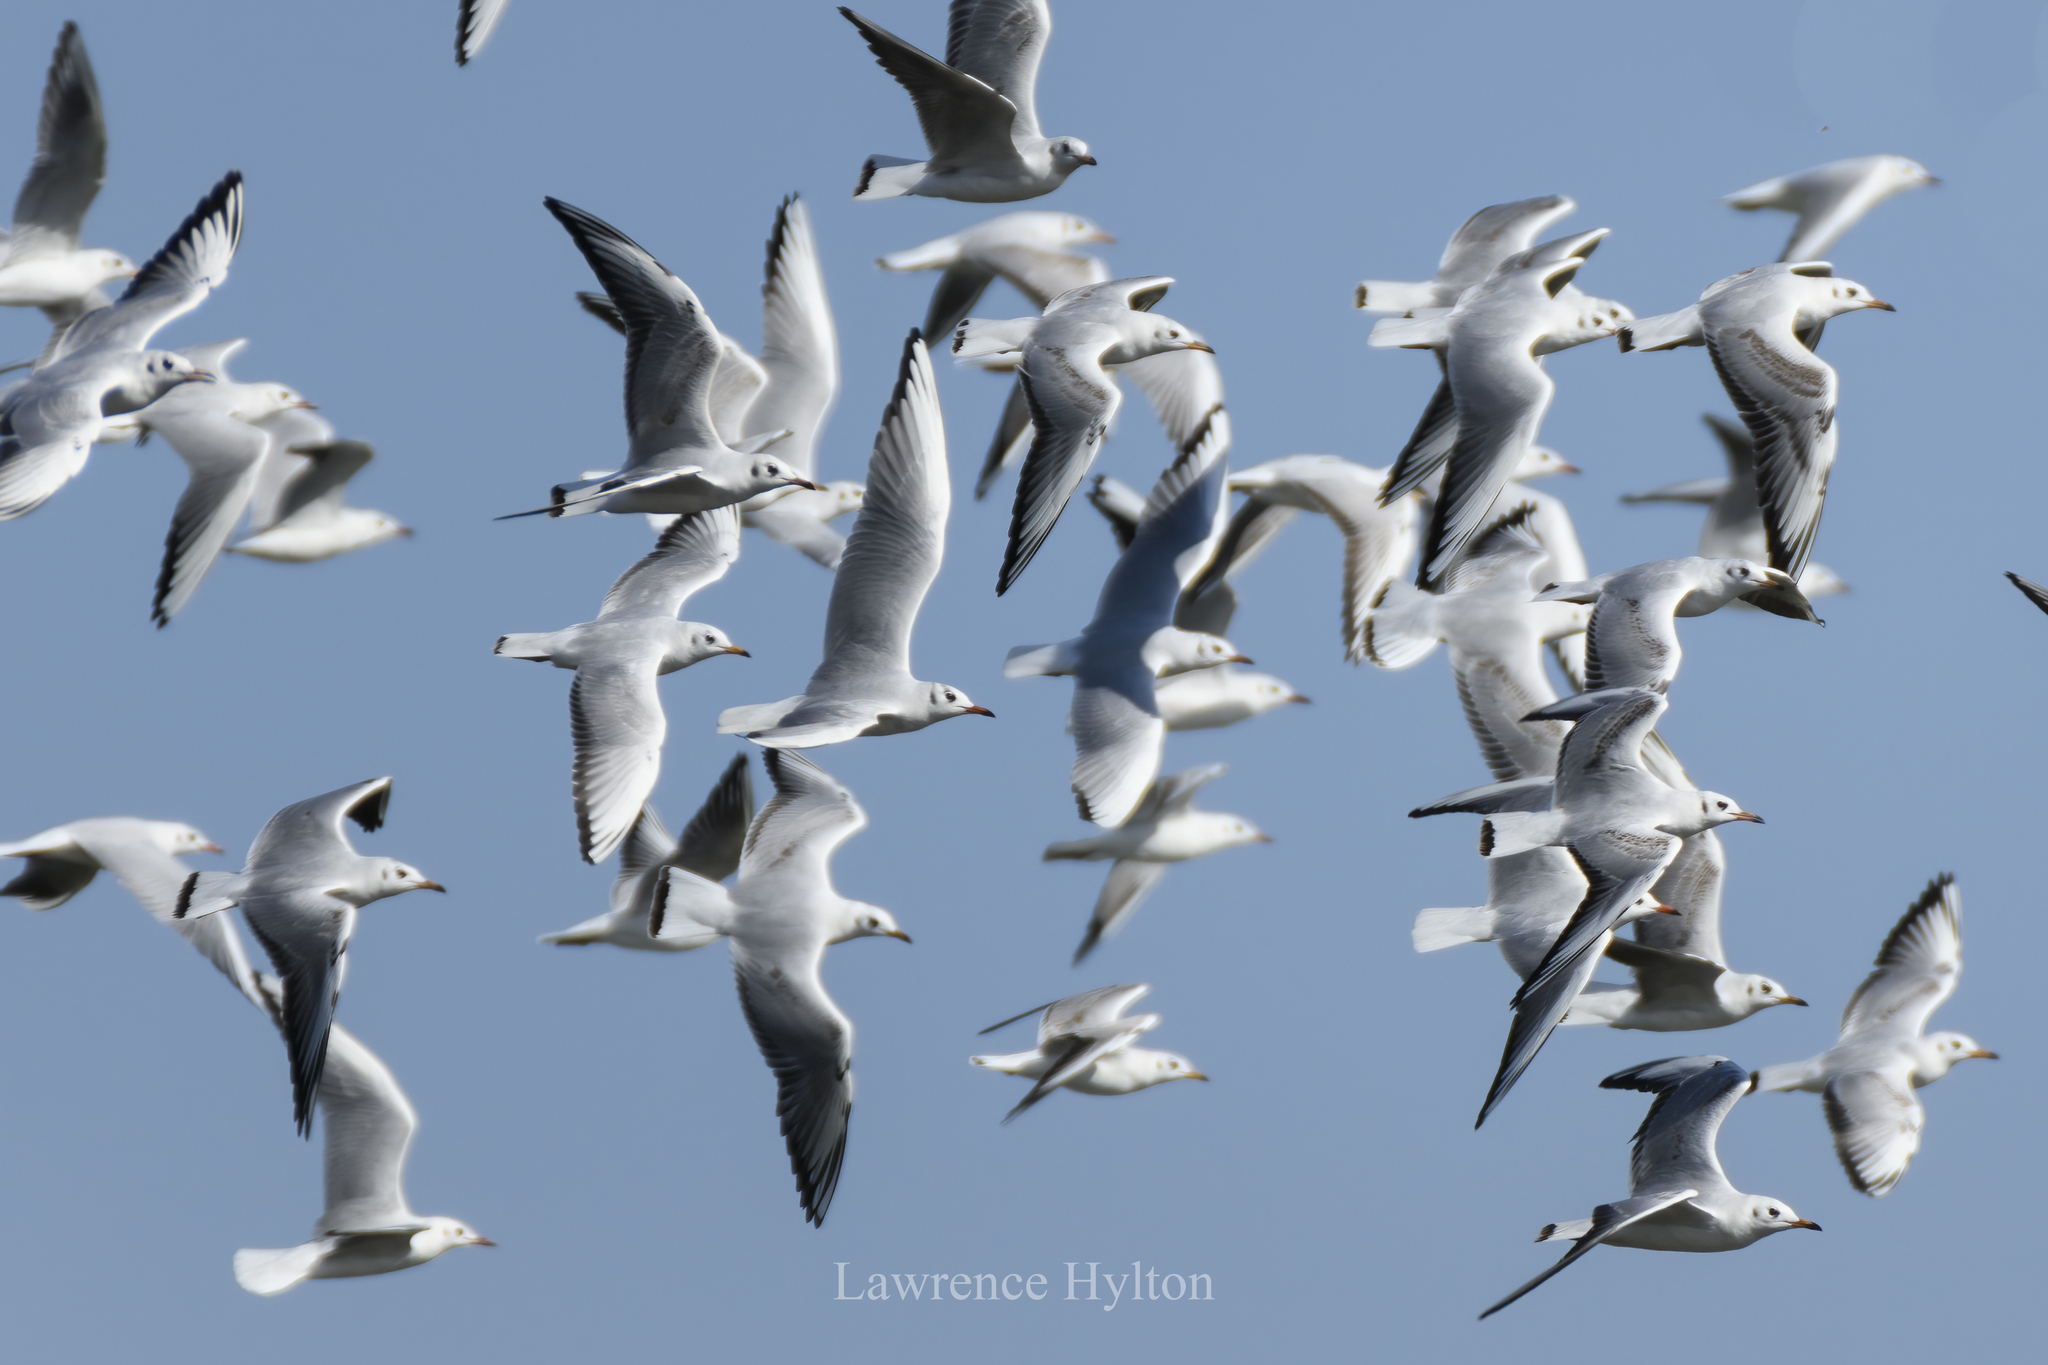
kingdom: Animalia
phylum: Chordata
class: Aves
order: Charadriiformes
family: Laridae
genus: Chroicocephalus
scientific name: Chroicocephalus ridibundus
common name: Black-headed gull
